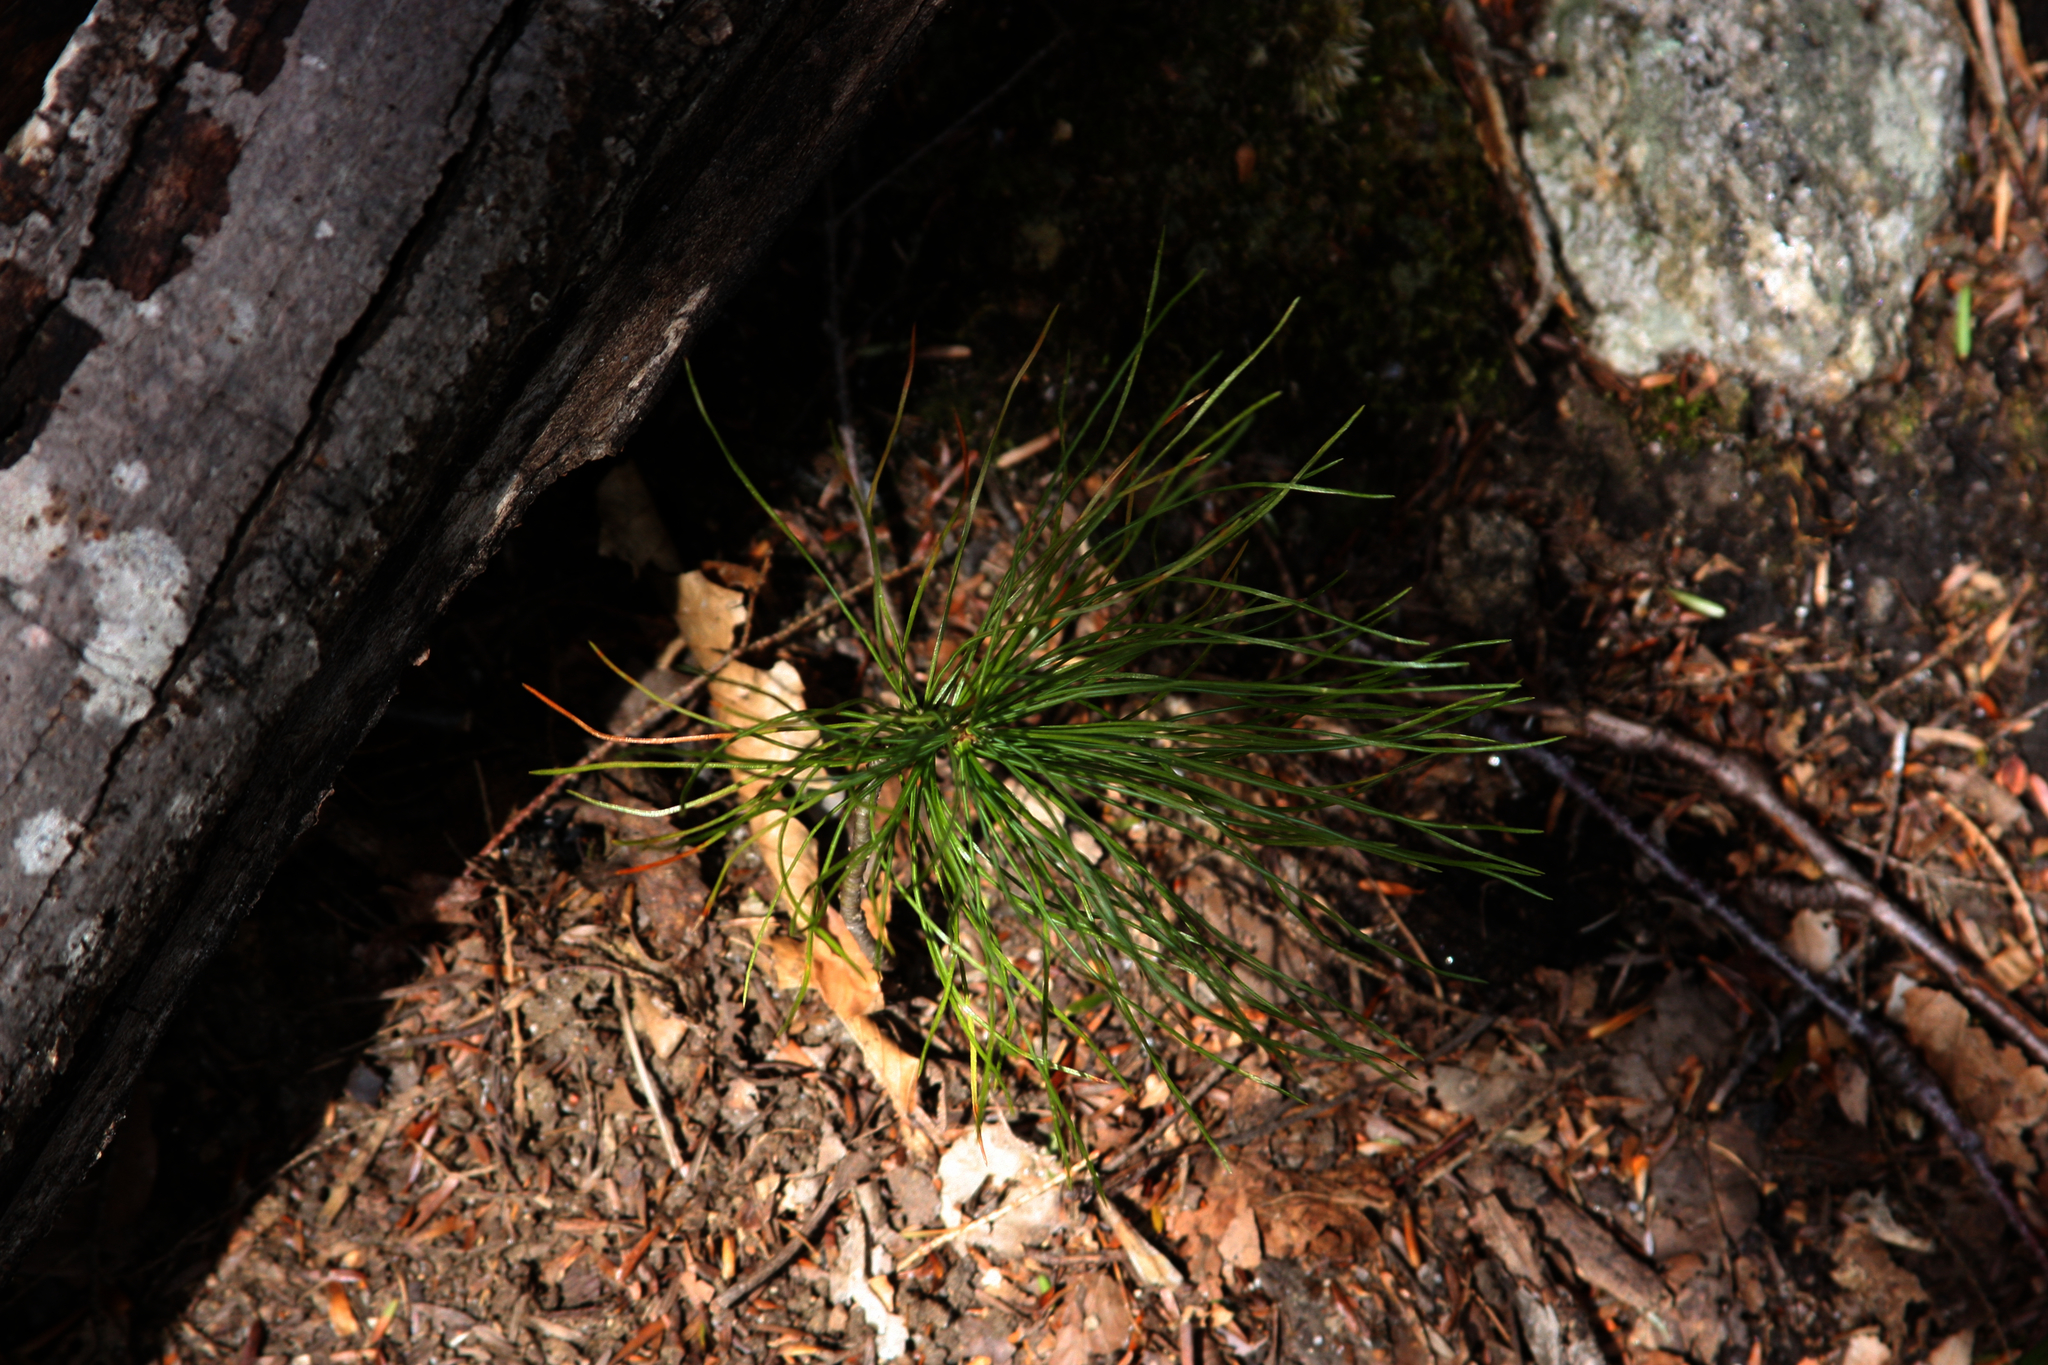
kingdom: Plantae
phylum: Tracheophyta
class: Pinopsida
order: Pinales
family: Pinaceae
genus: Pinus
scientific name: Pinus strobus
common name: Weymouth pine
